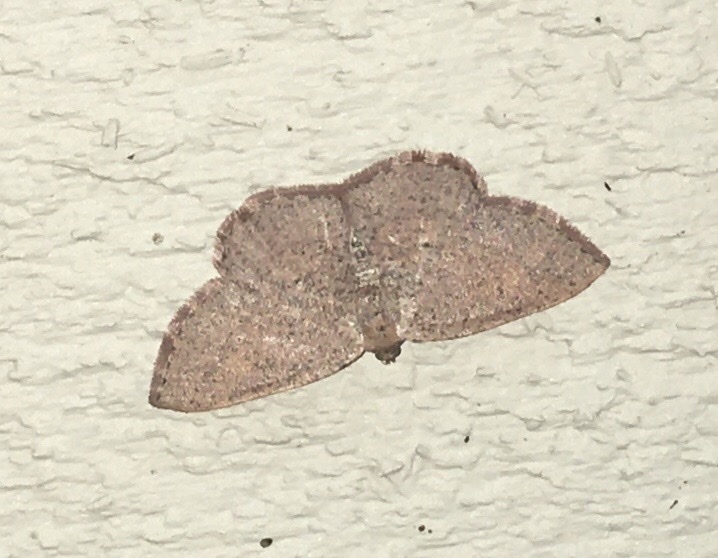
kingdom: Animalia
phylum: Arthropoda
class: Insecta
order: Lepidoptera
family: Geometridae
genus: Episemasia
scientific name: Episemasia solitaria
